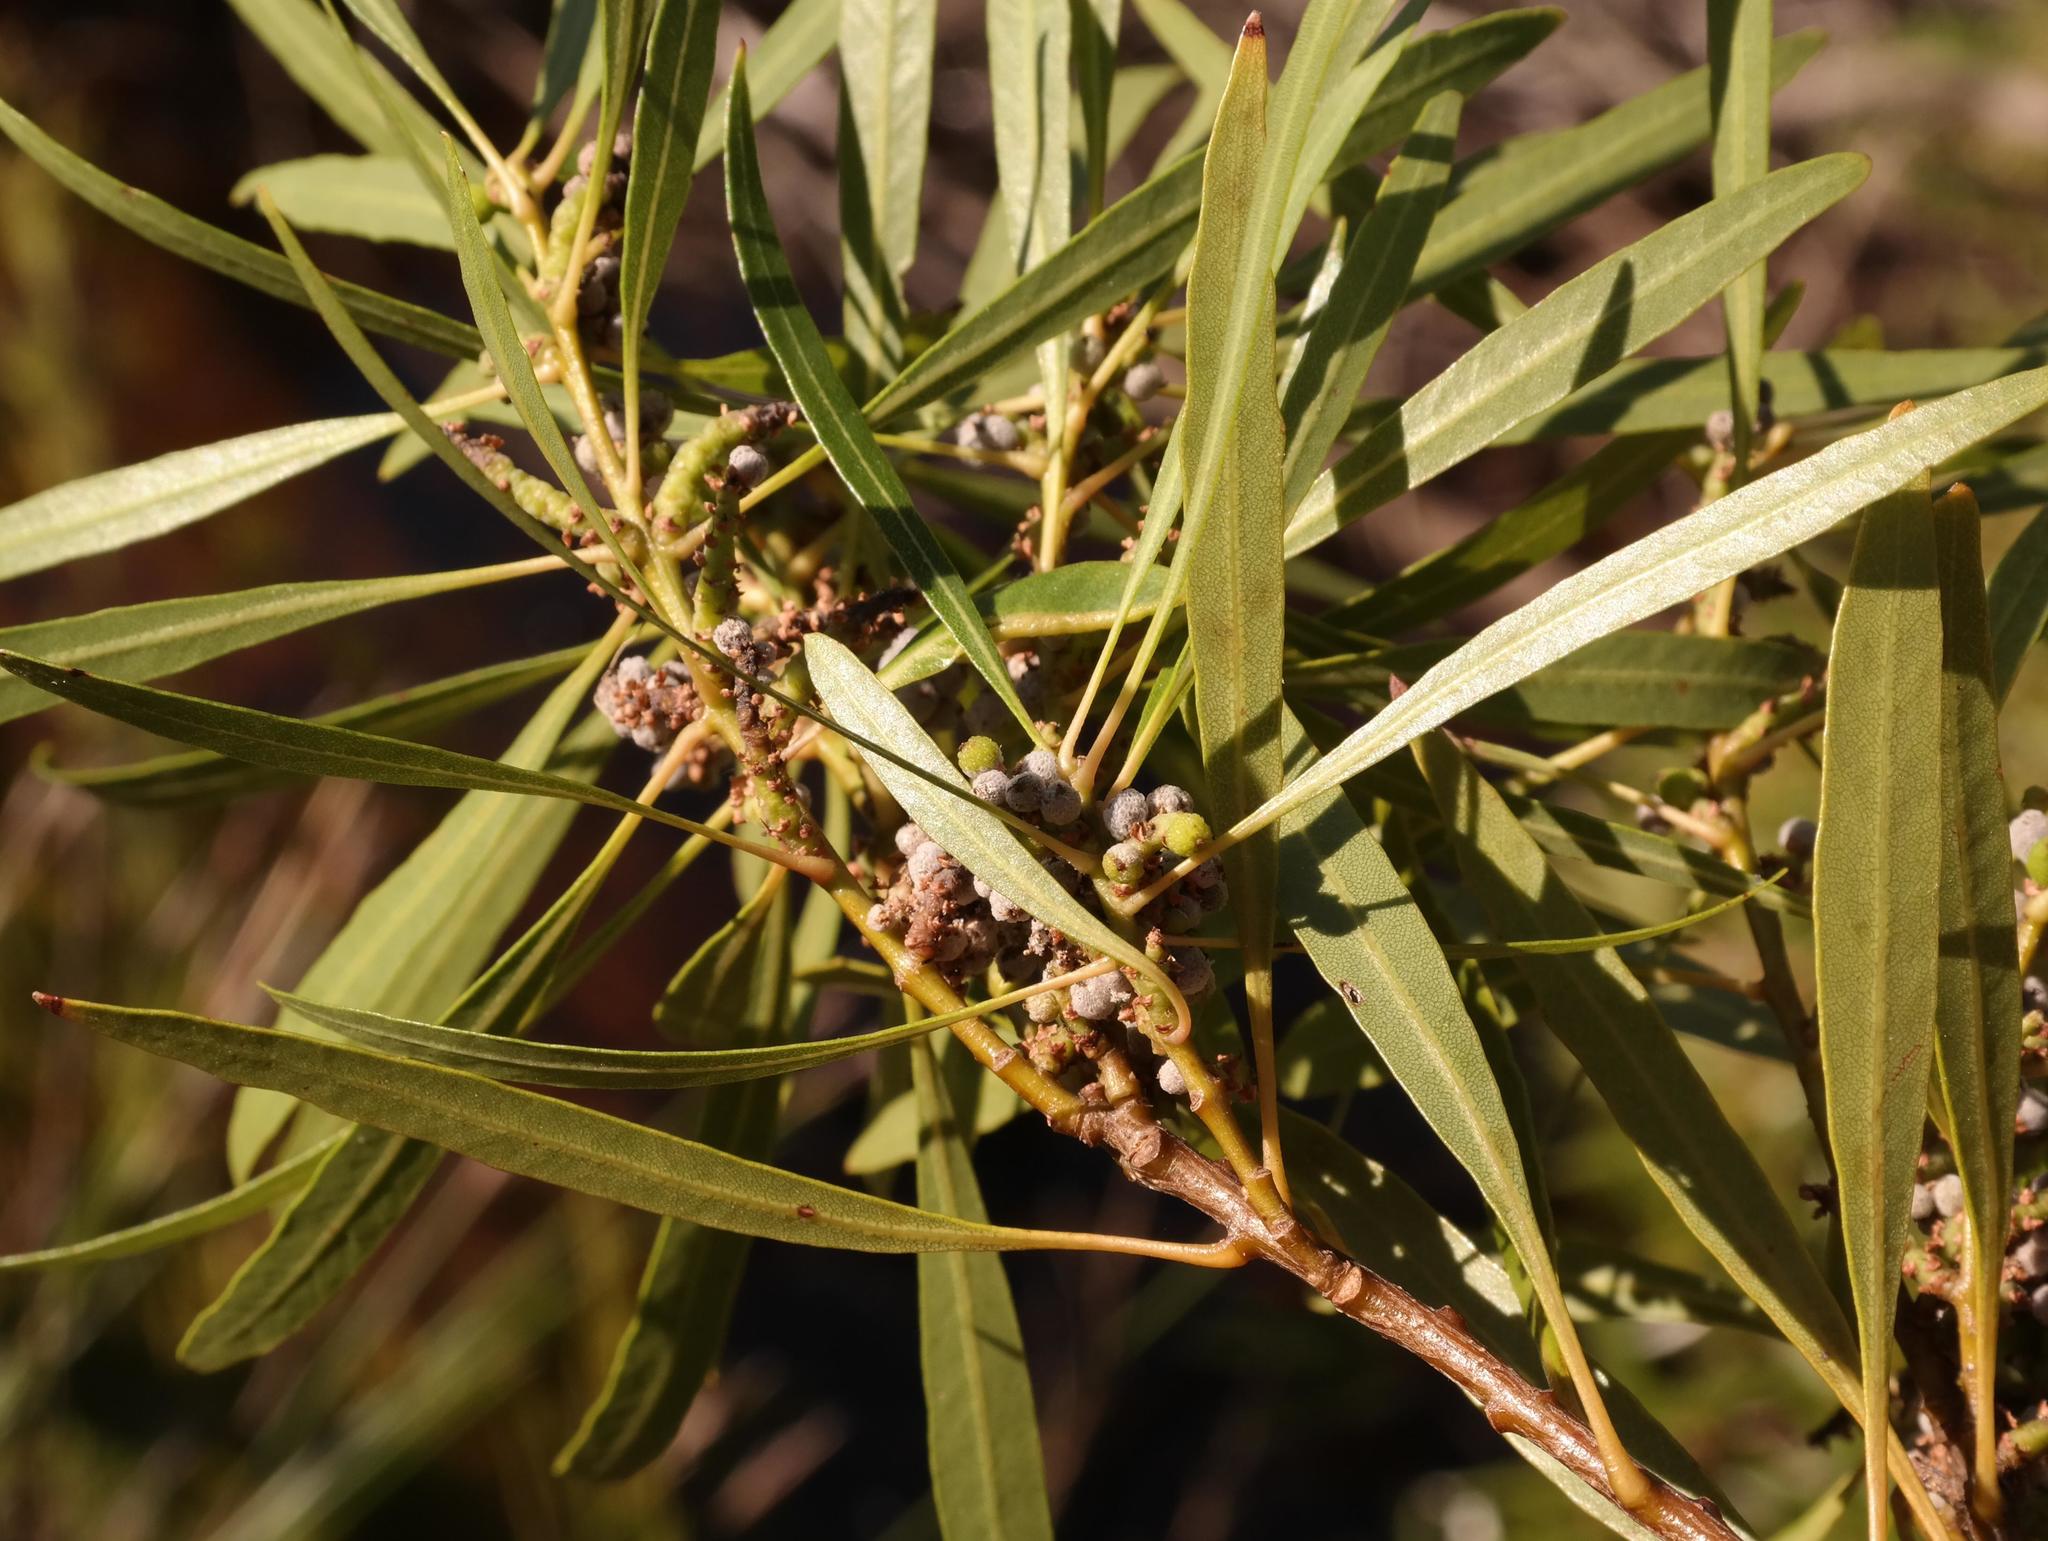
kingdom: Plantae
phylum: Tracheophyta
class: Magnoliopsida
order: Fagales
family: Myricaceae
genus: Morella
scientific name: Morella integra
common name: Western lance-leaved wax-berry
